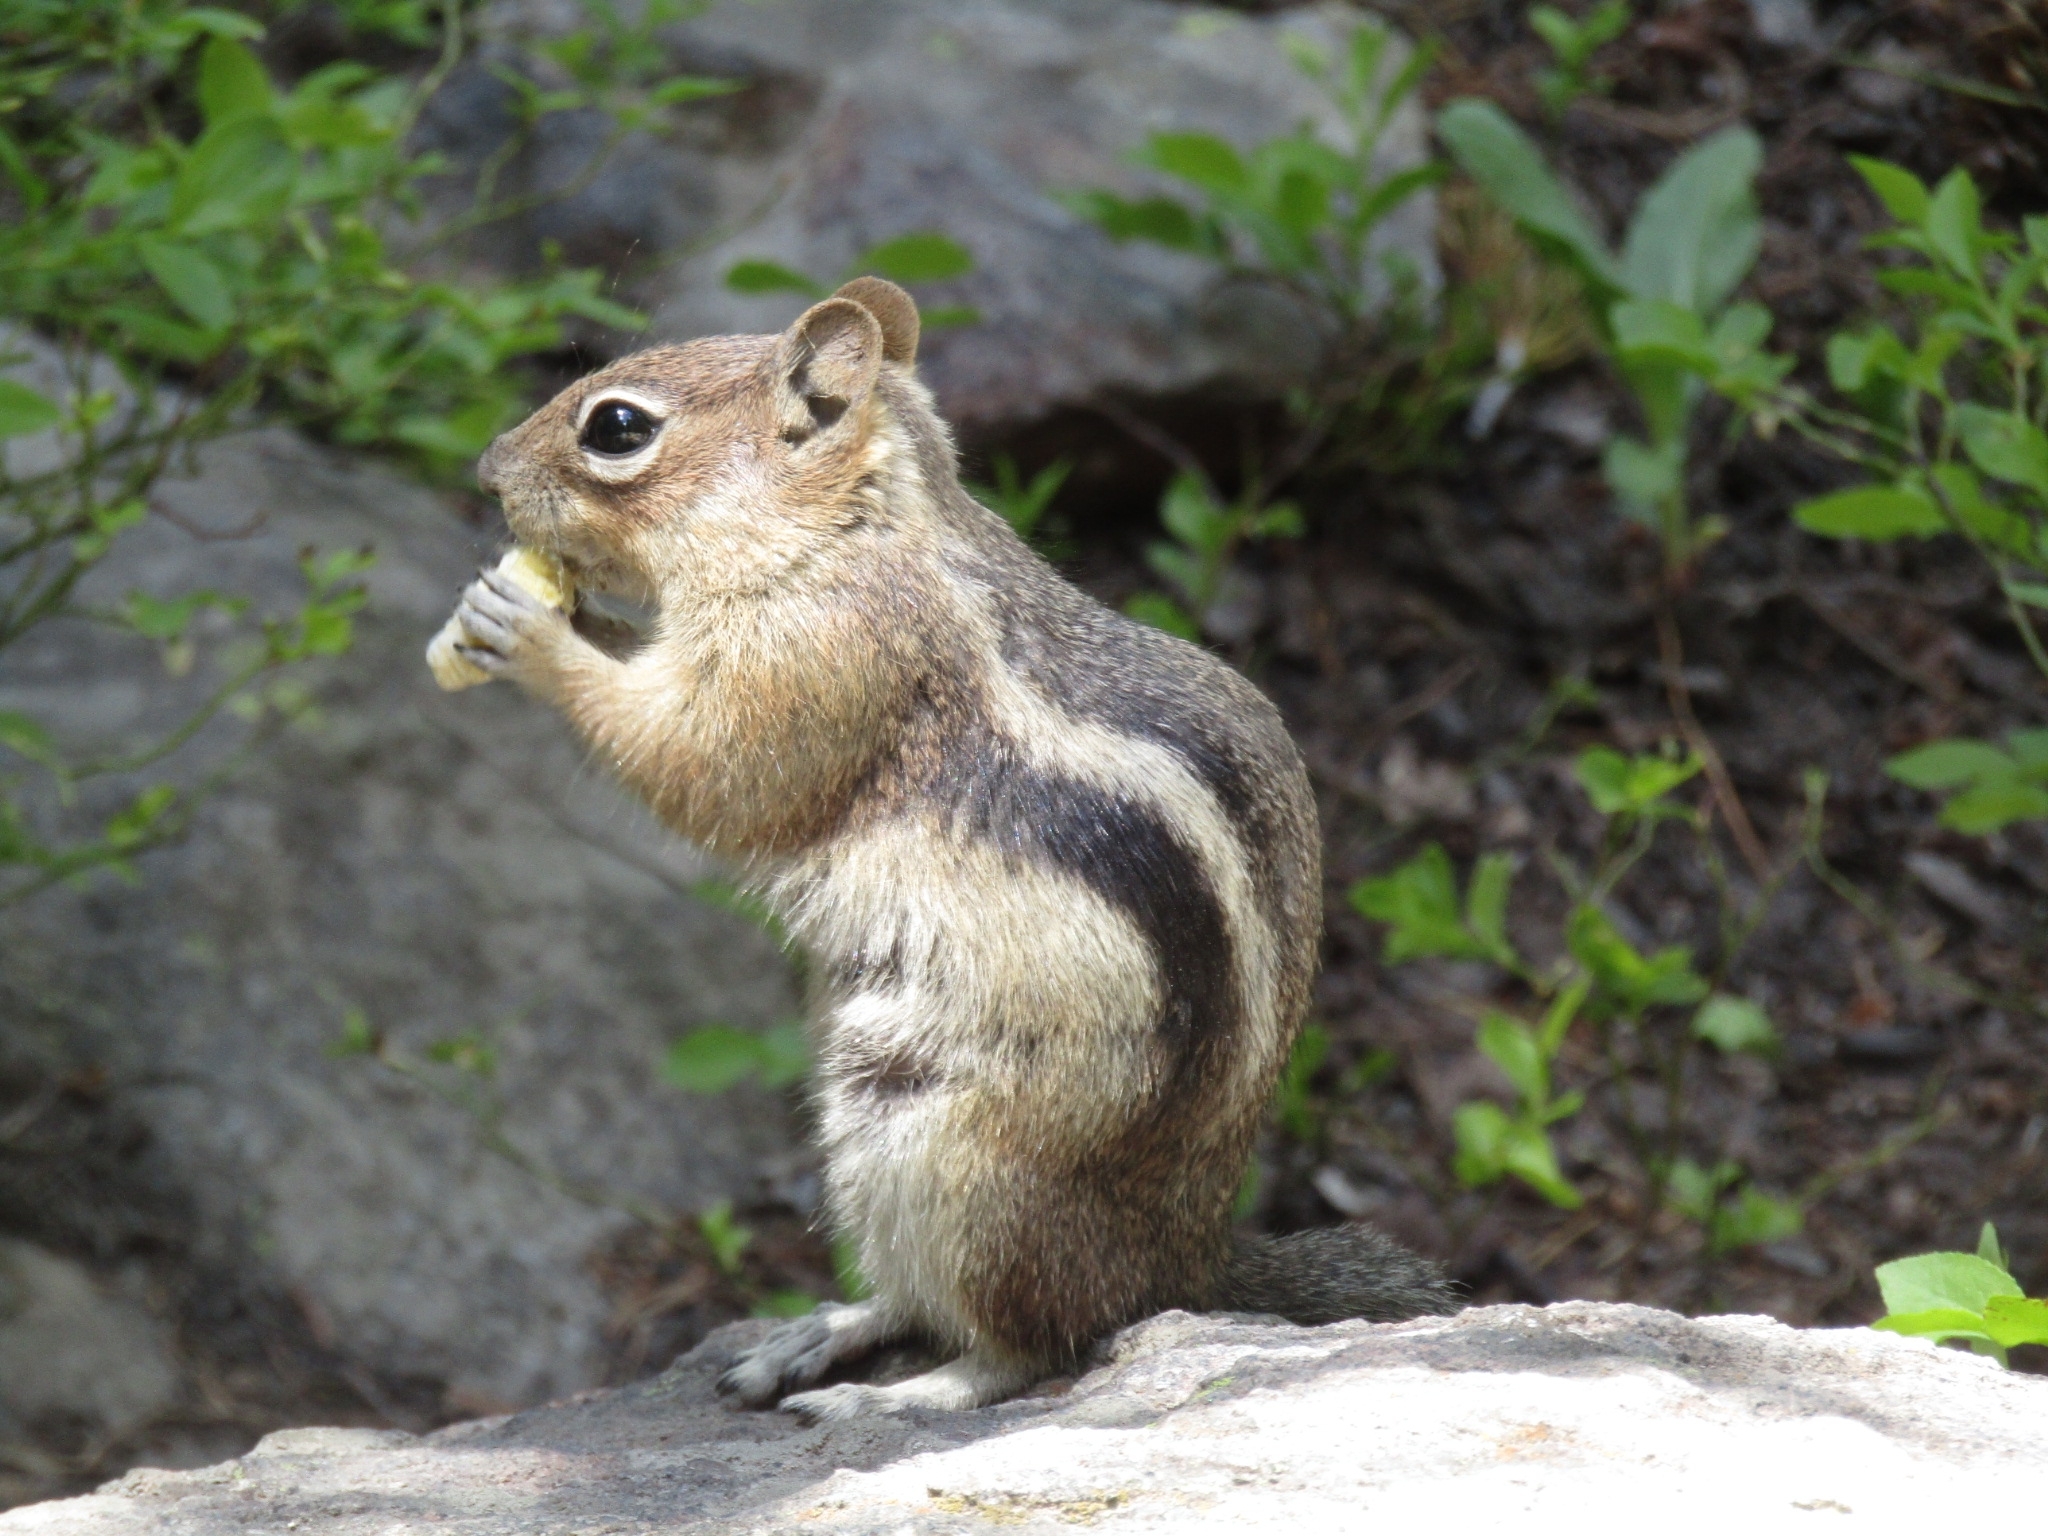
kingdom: Animalia
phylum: Chordata
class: Mammalia
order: Rodentia
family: Sciuridae
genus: Callospermophilus
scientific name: Callospermophilus lateralis
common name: Golden-mantled ground squirrel
